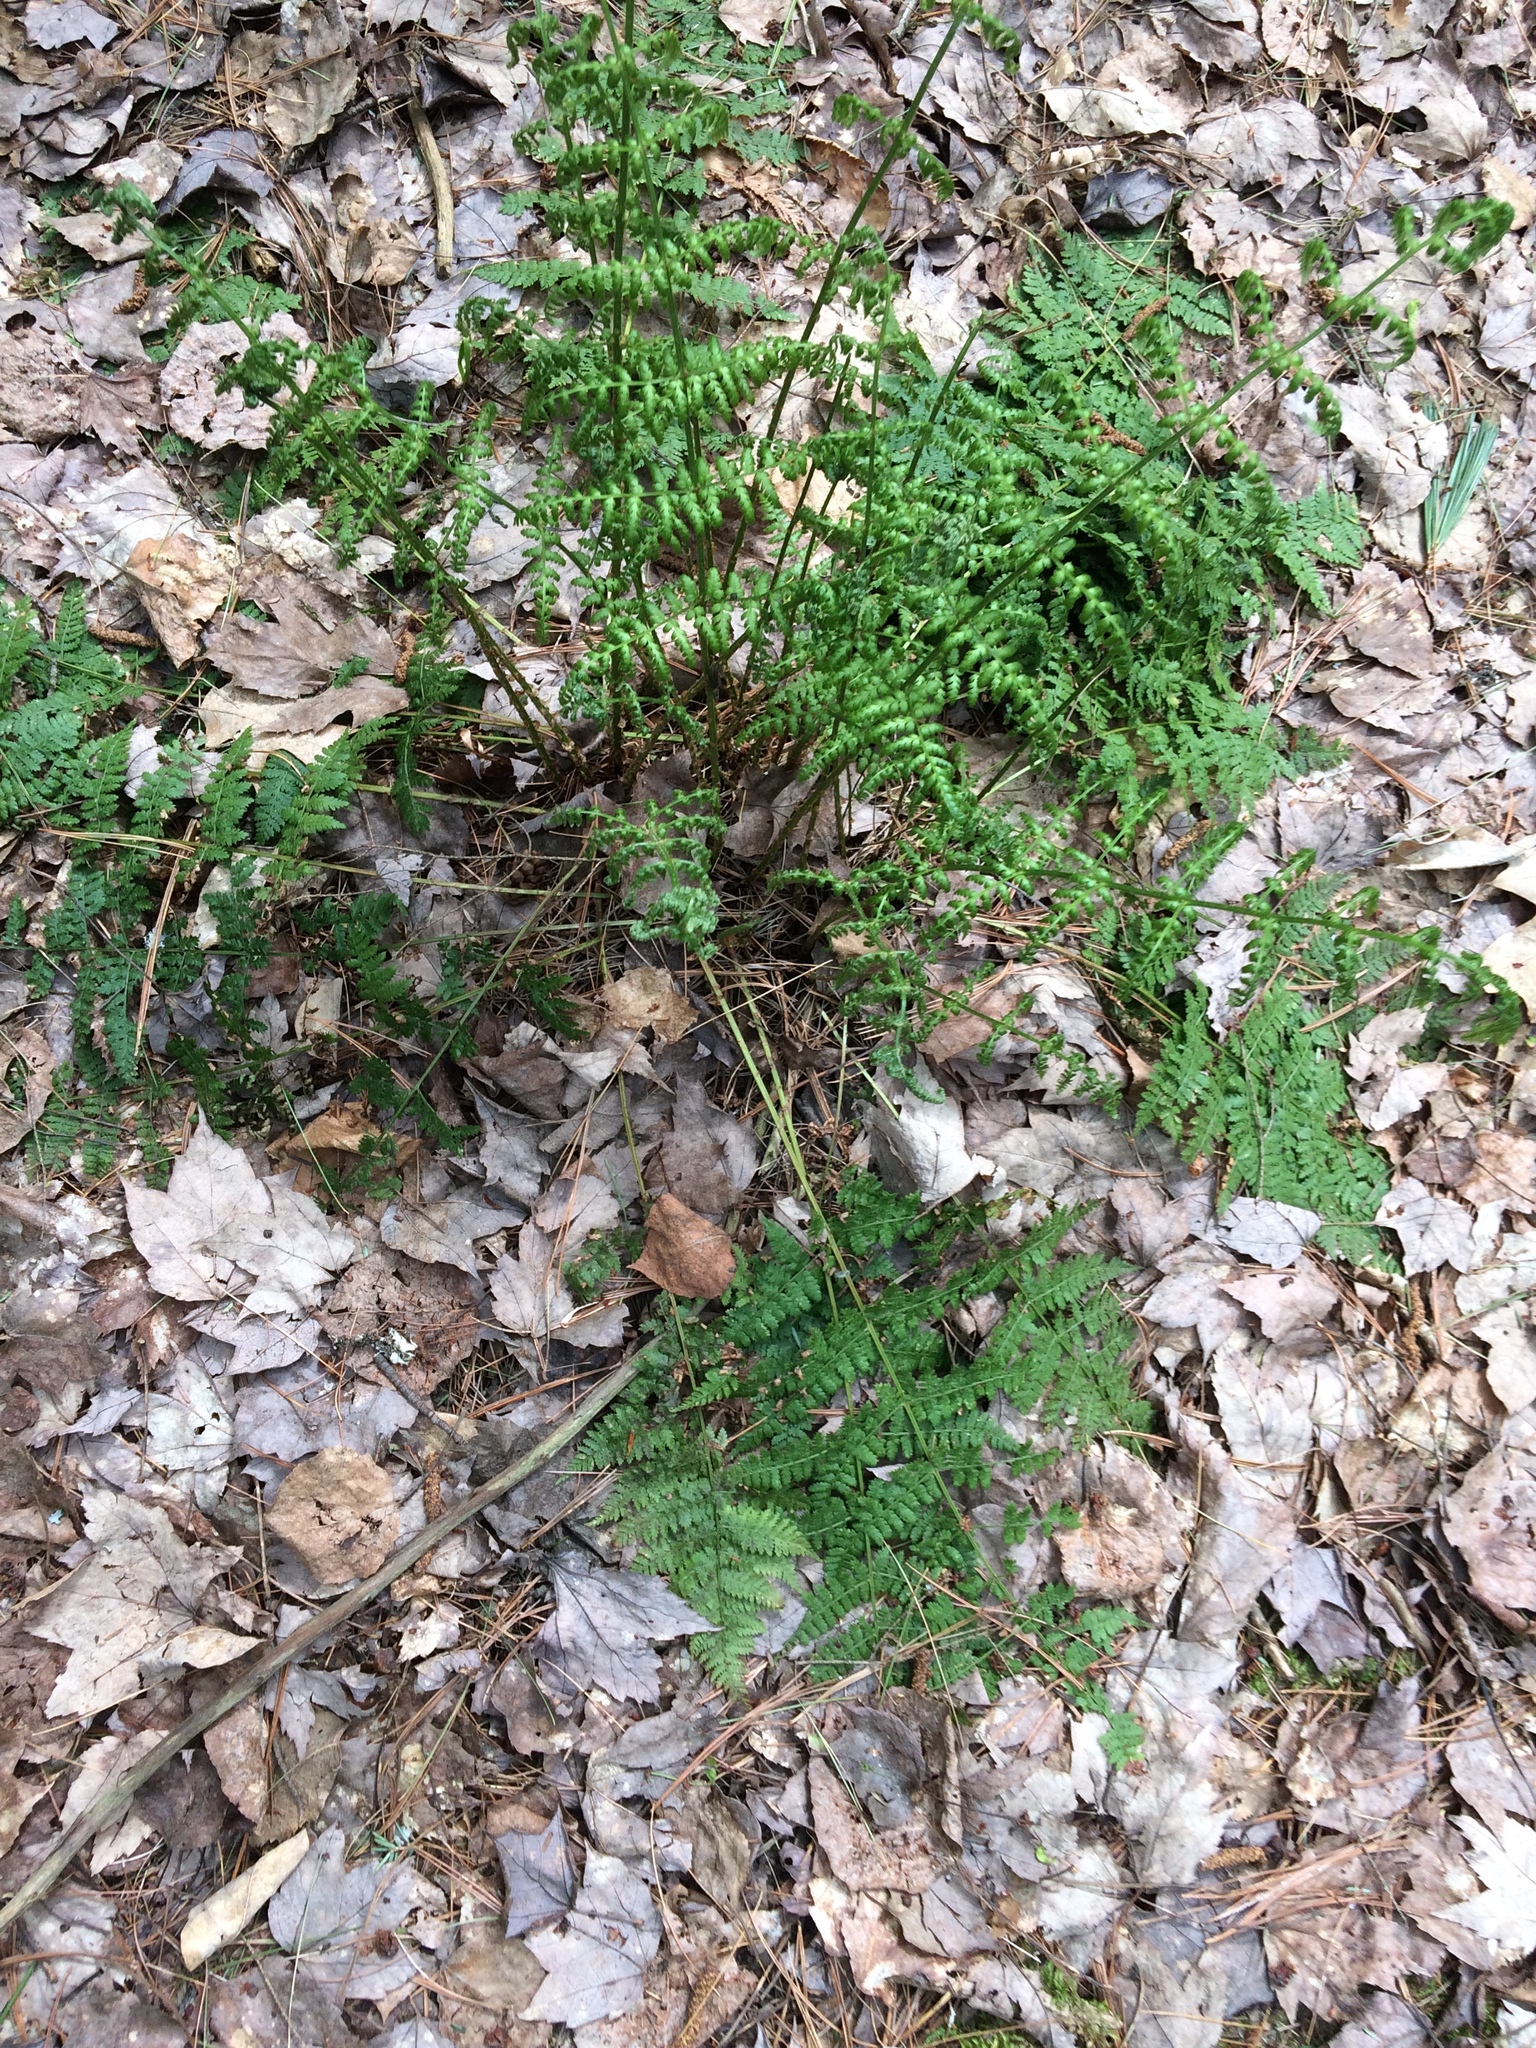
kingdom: Plantae
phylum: Tracheophyta
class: Polypodiopsida
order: Polypodiales
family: Dryopteridaceae
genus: Dryopteris
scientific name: Dryopteris intermedia
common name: Evergreen wood fern
